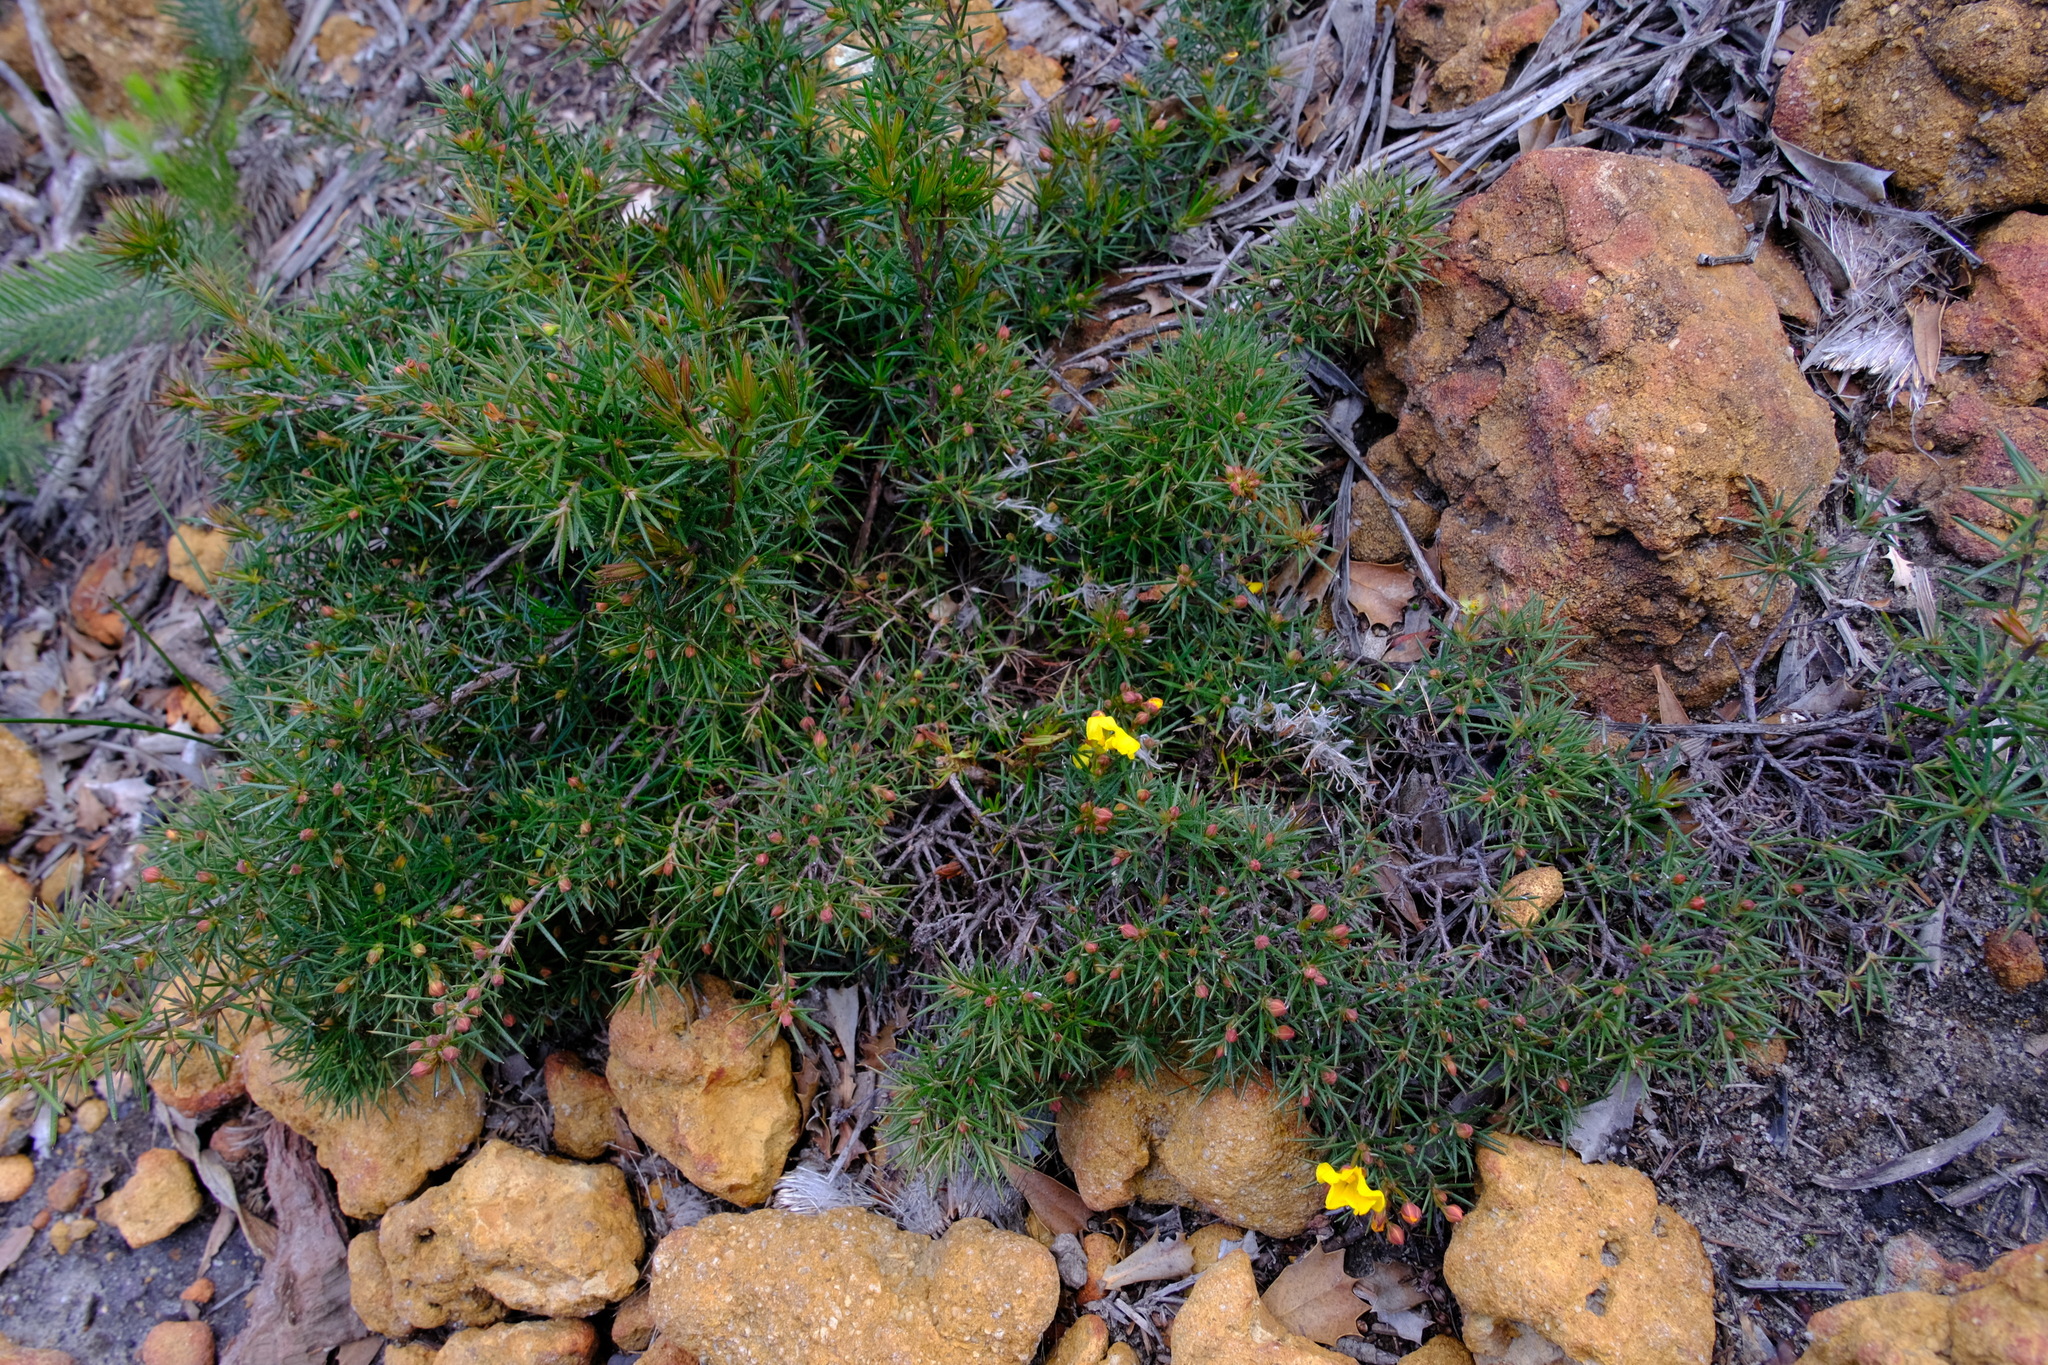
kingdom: Plantae
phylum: Tracheophyta
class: Magnoliopsida
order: Dilleniales
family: Dilleniaceae
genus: Hibbertia
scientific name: Hibbertia
